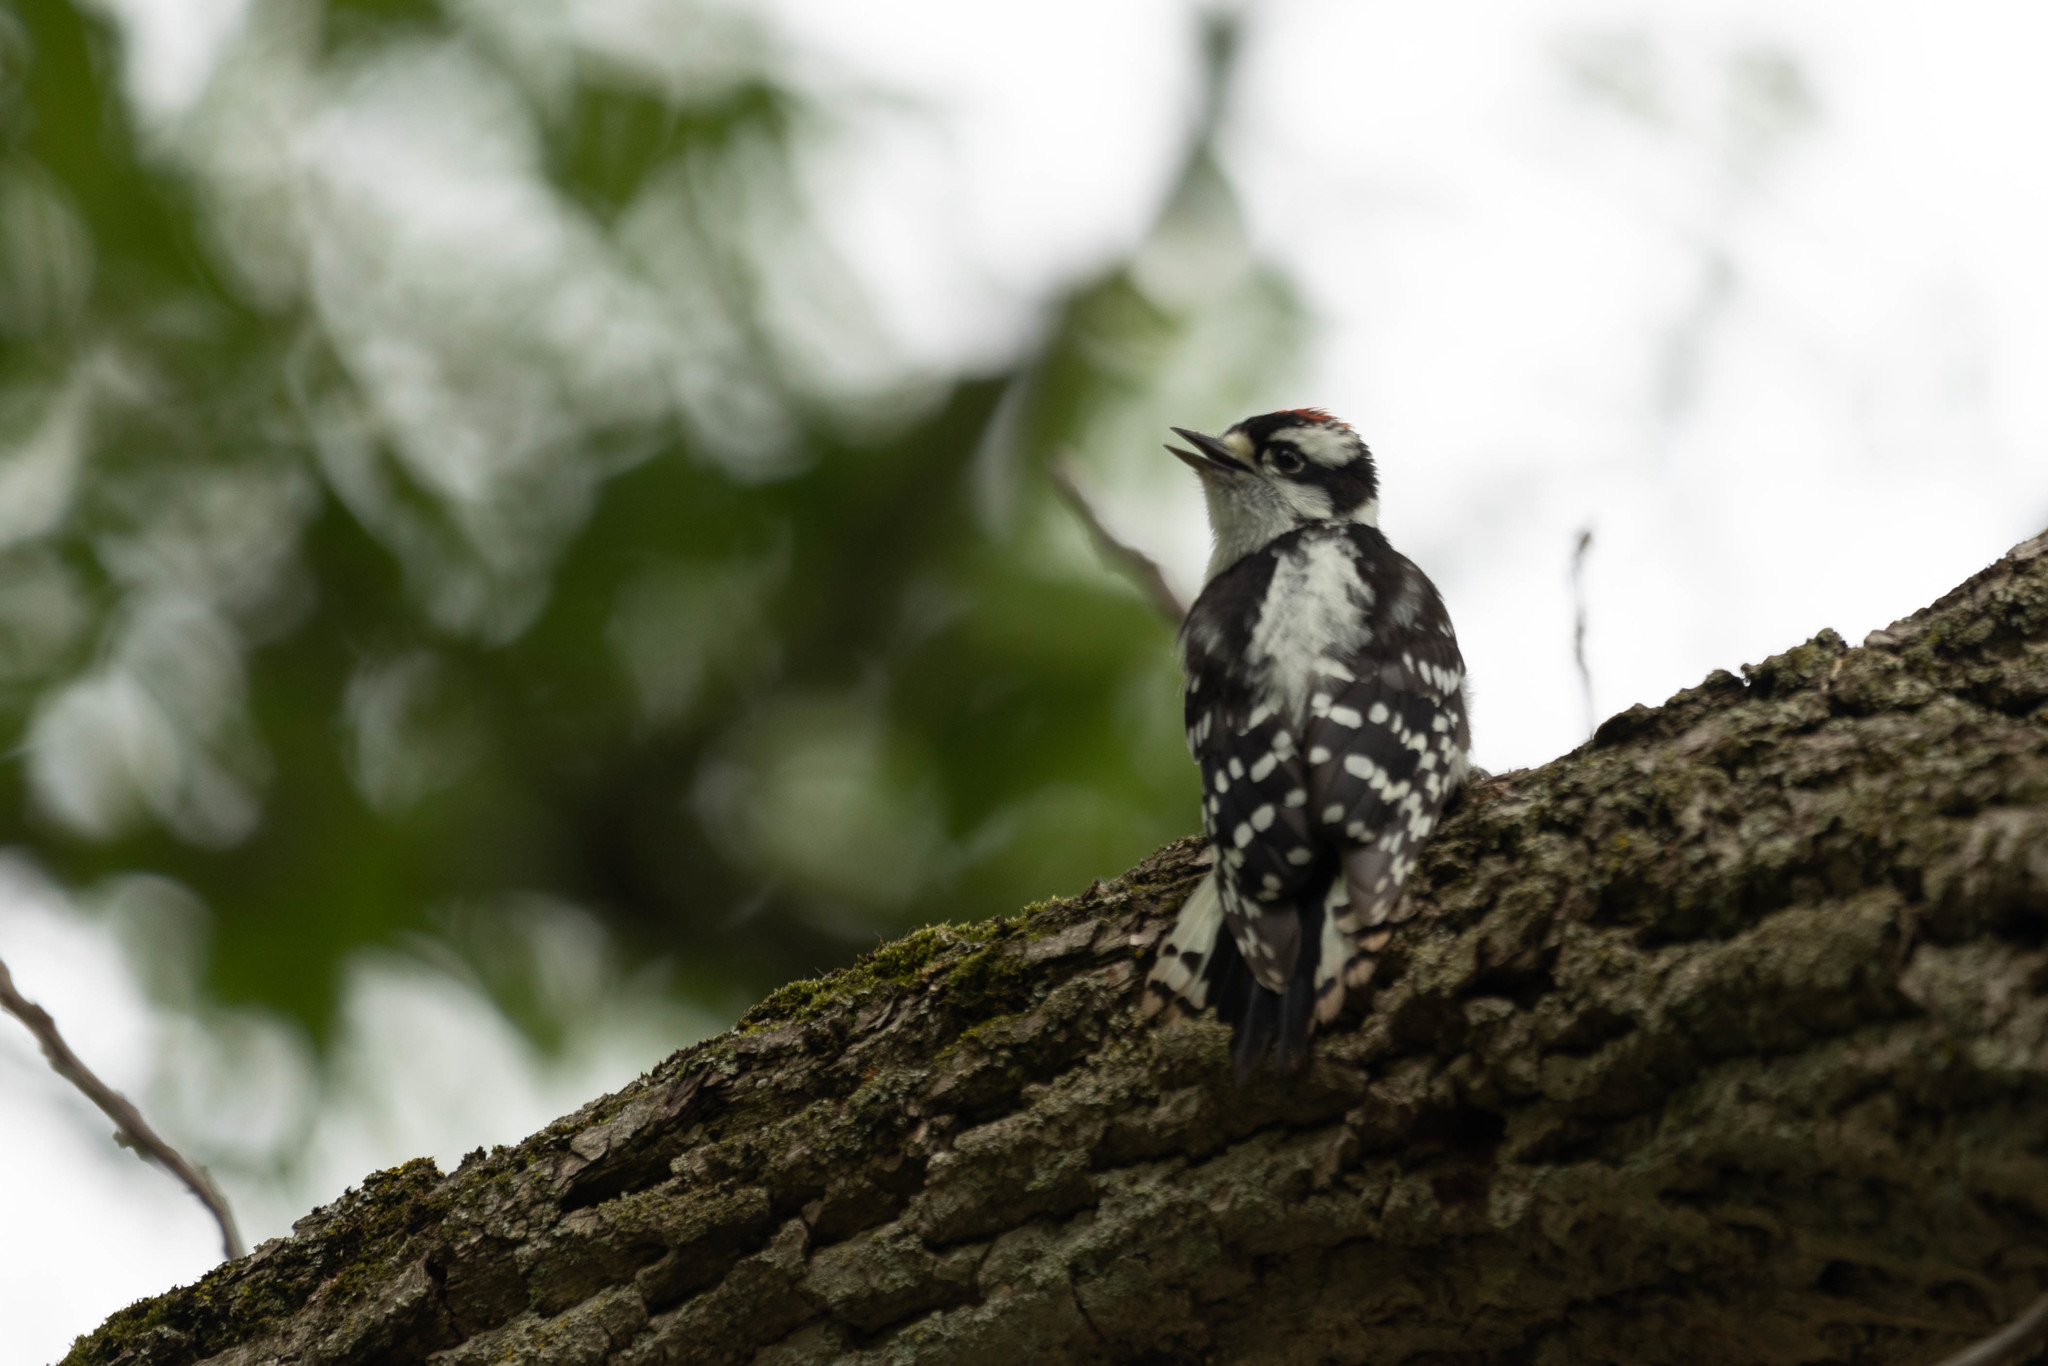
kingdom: Animalia
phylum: Chordata
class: Aves
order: Piciformes
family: Picidae
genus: Dryobates
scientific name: Dryobates pubescens
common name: Downy woodpecker
